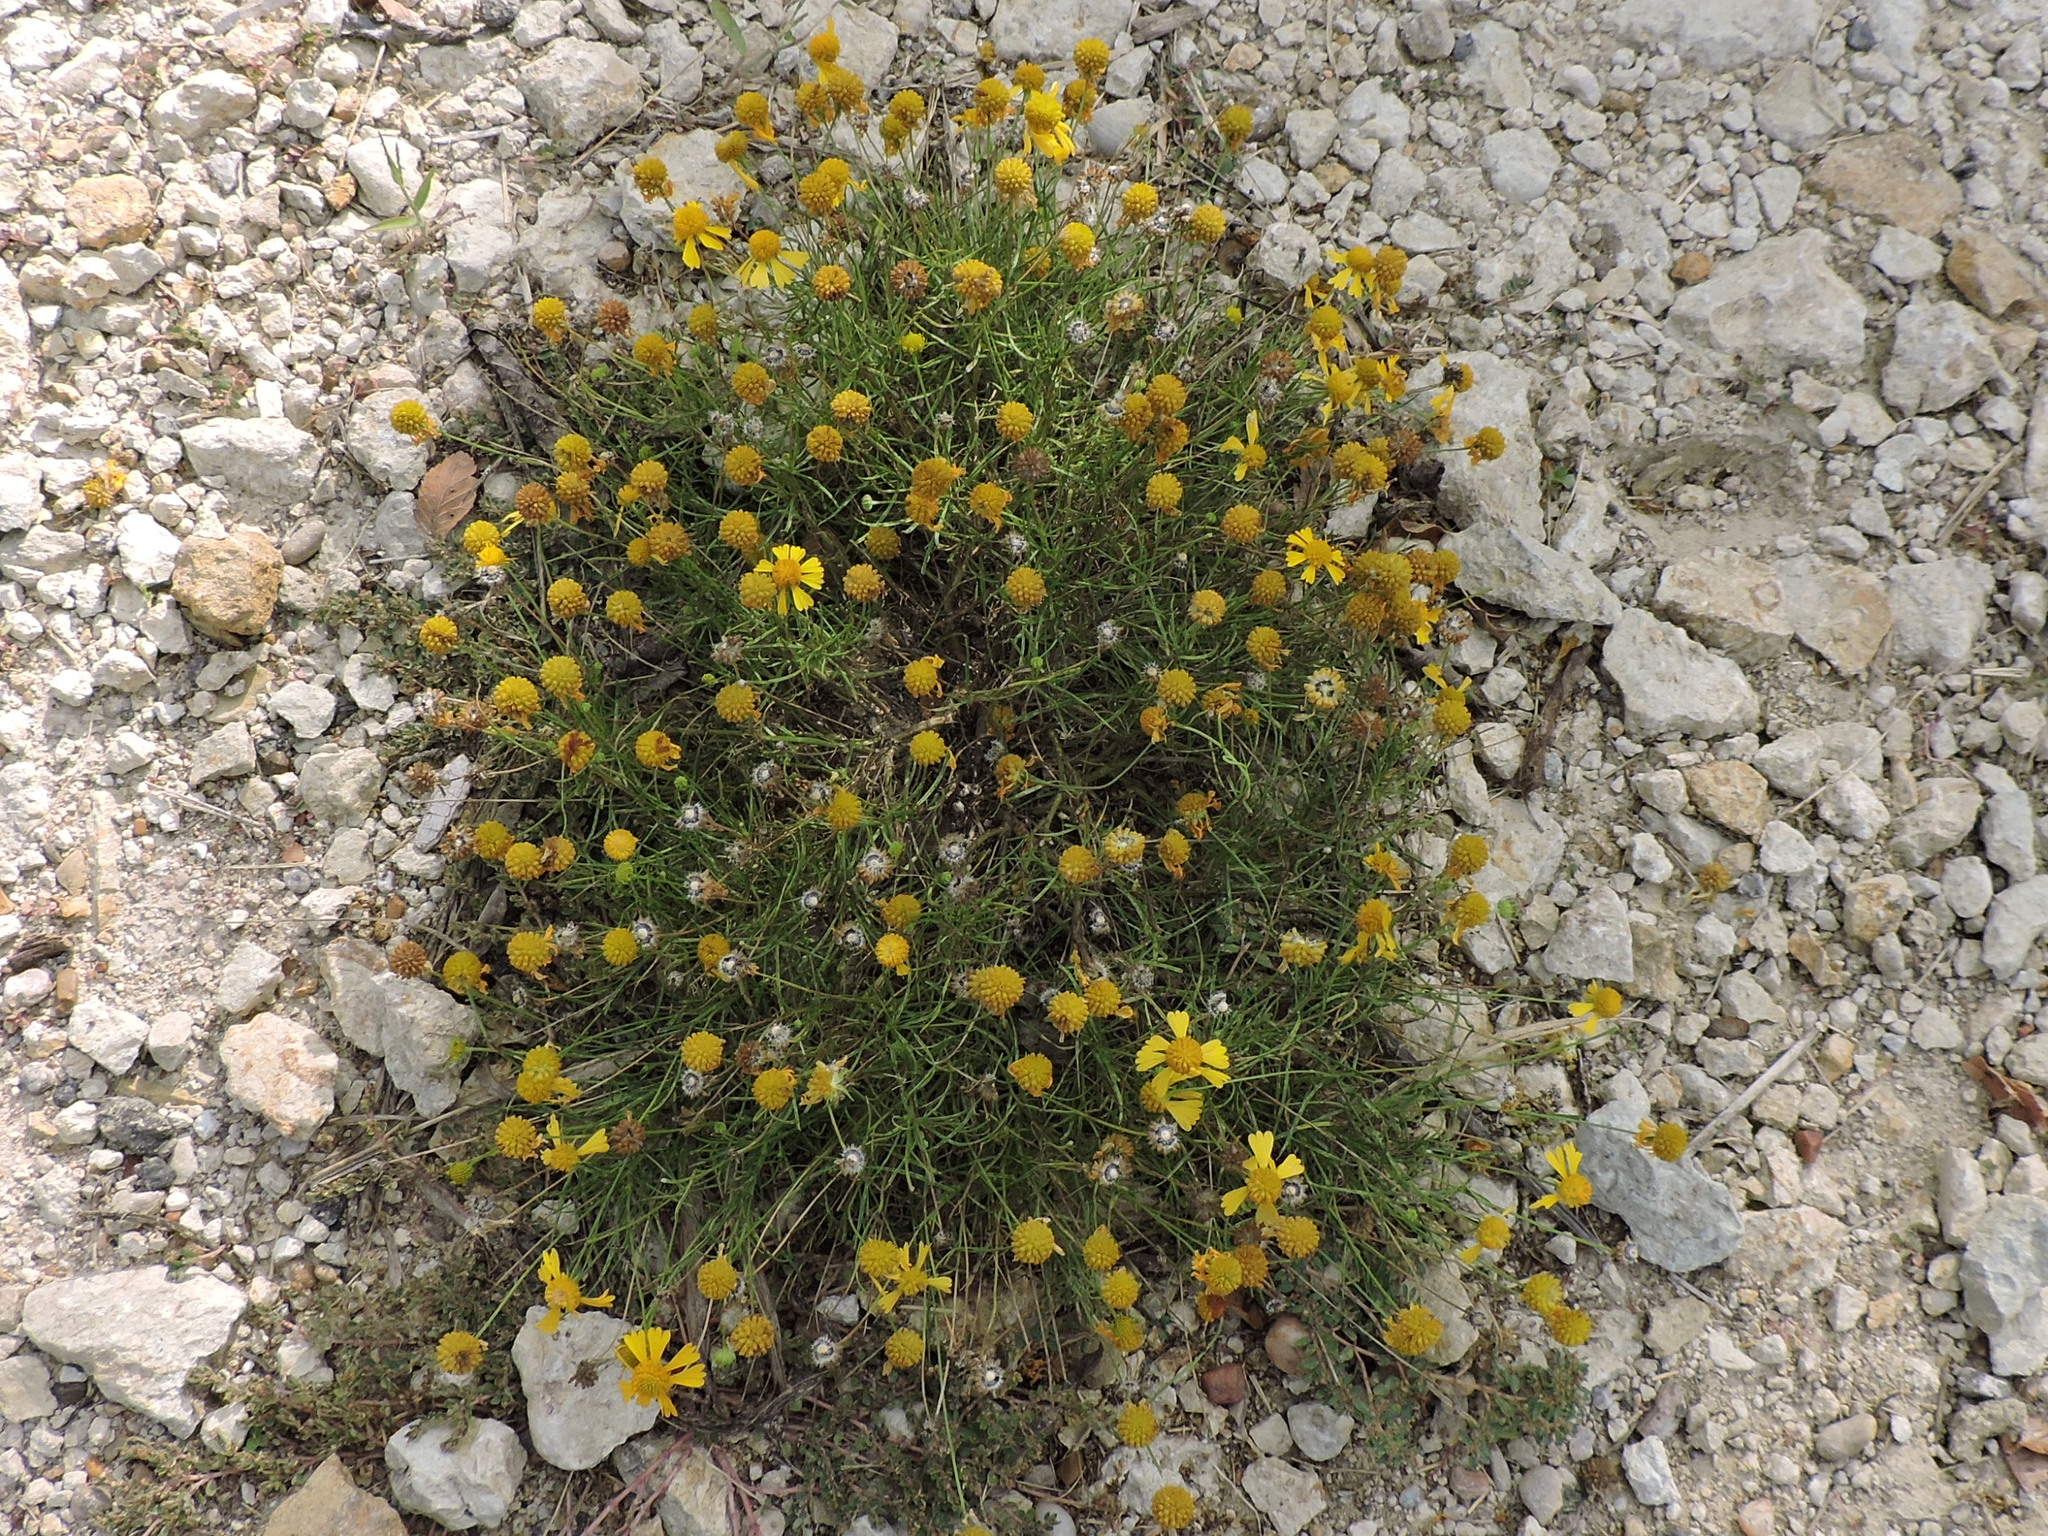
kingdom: Plantae
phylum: Tracheophyta
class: Magnoliopsida
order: Asterales
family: Asteraceae
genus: Helenium
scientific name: Helenium amarum
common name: Bitter sneezeweed
